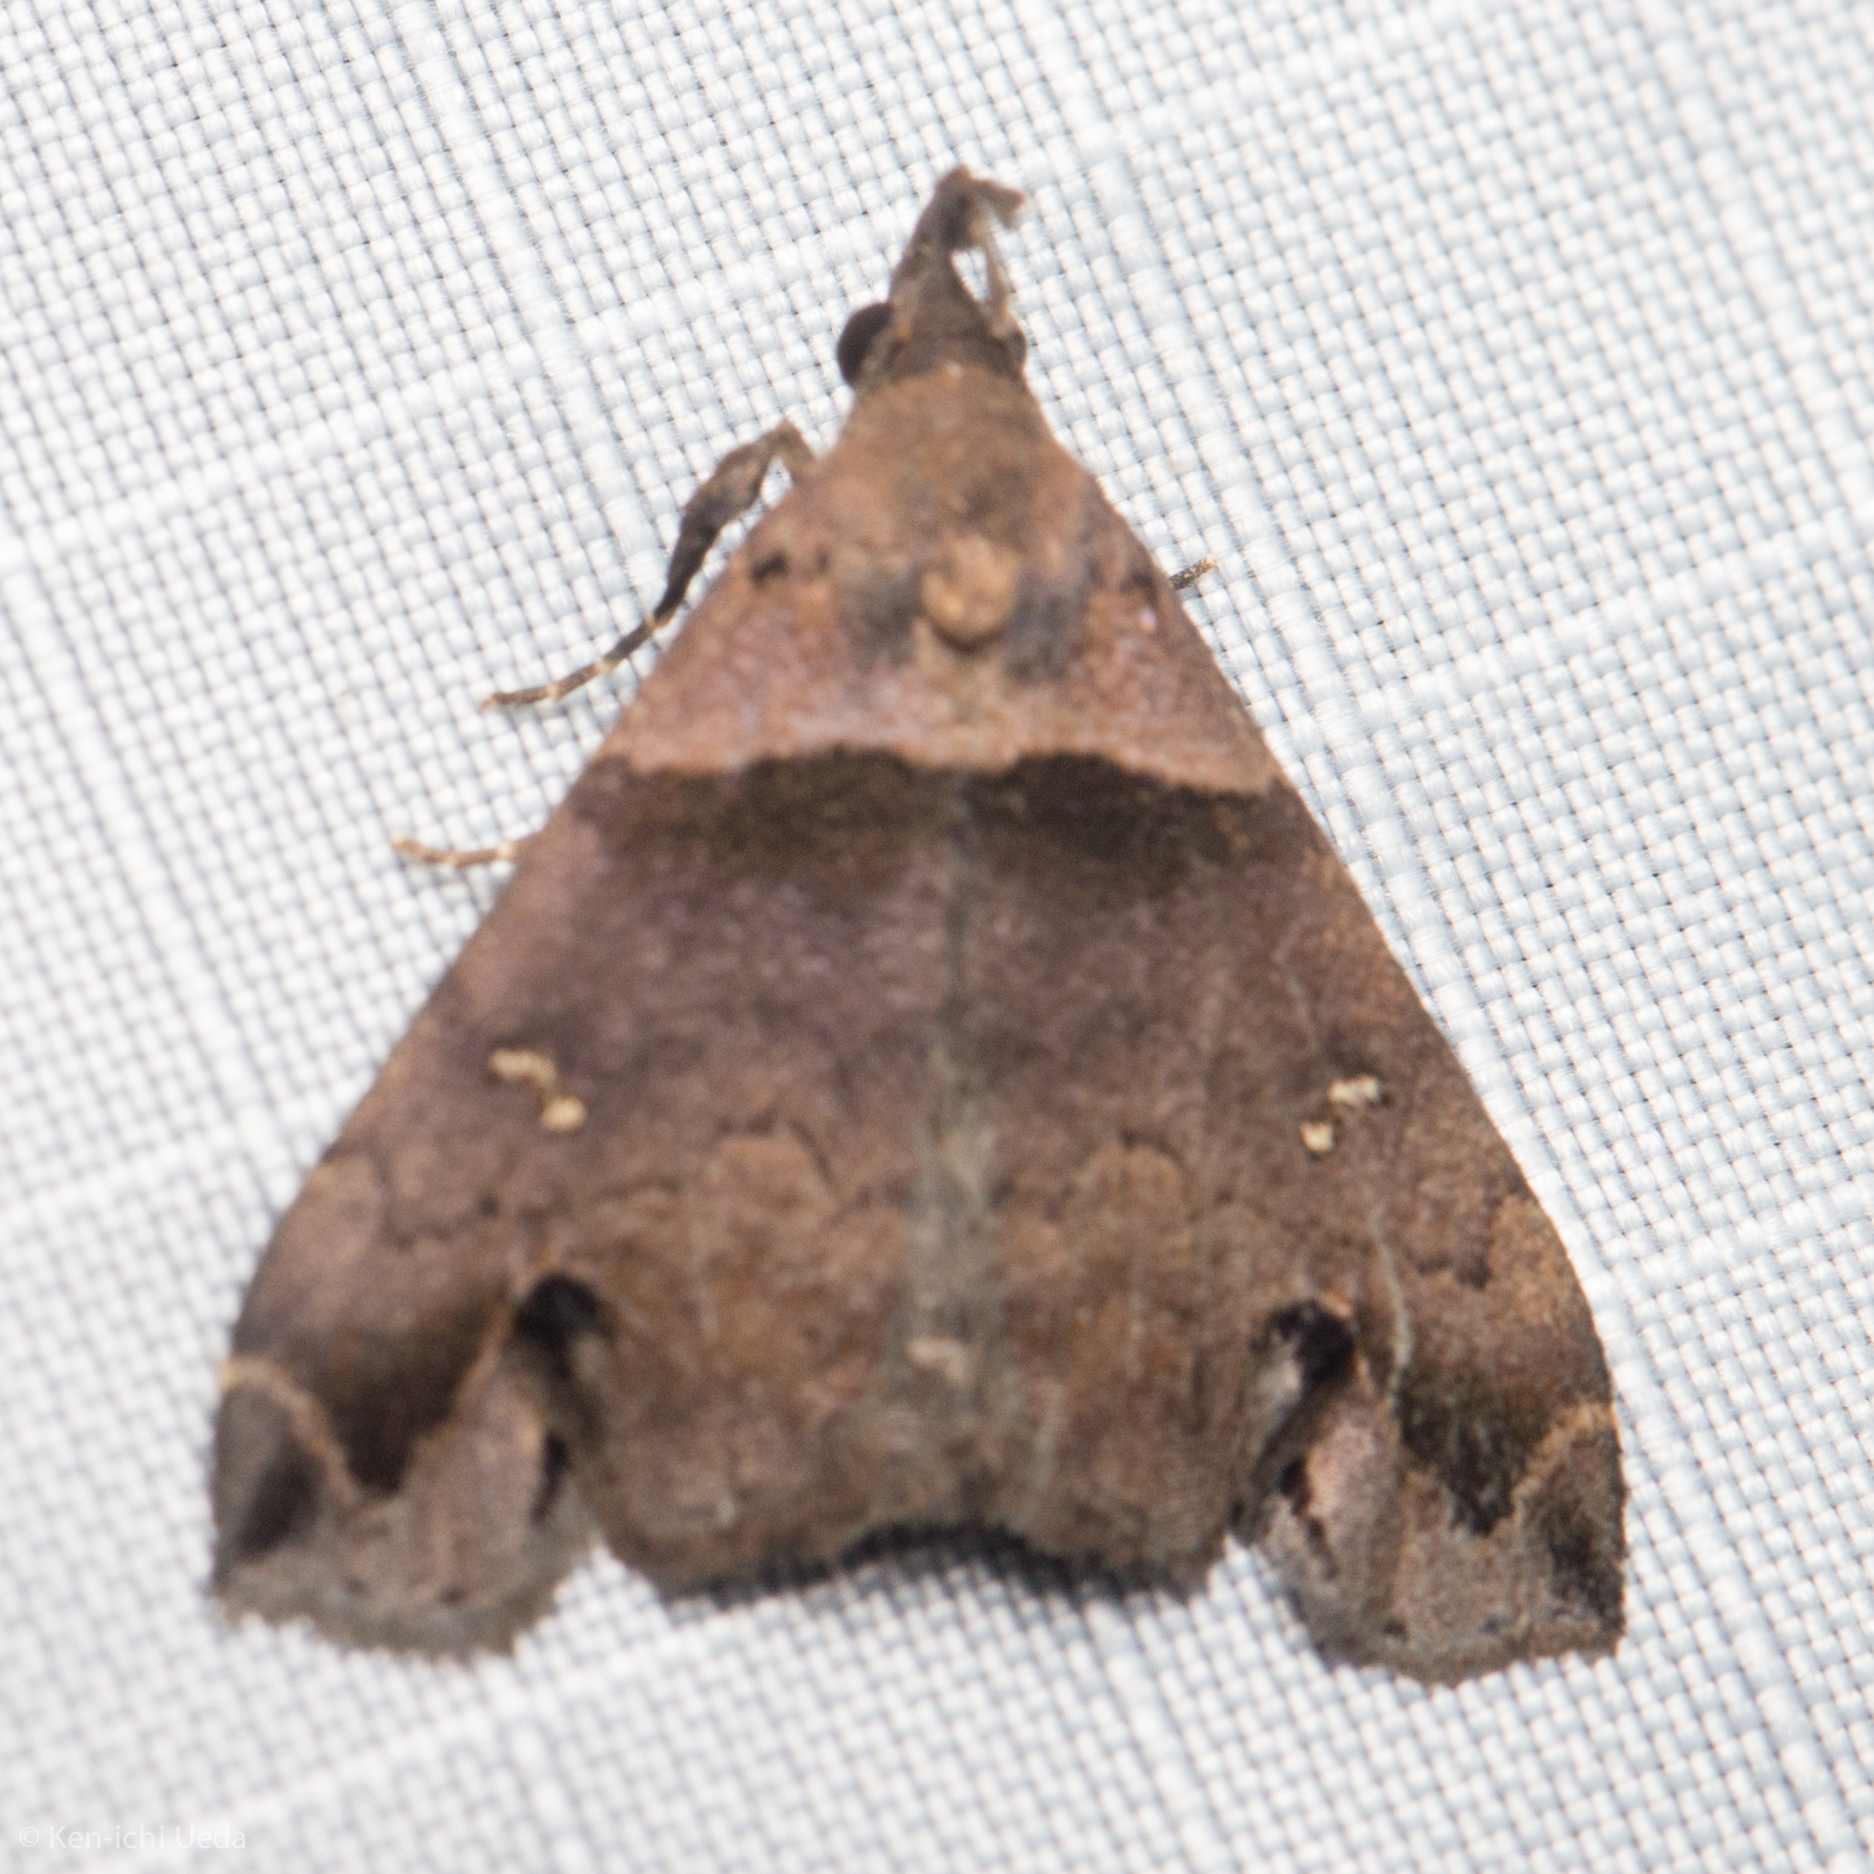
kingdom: Animalia
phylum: Arthropoda
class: Insecta
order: Lepidoptera
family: Erebidae
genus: Lascoria
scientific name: Lascoria ambigualis
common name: Ambiguous moth
